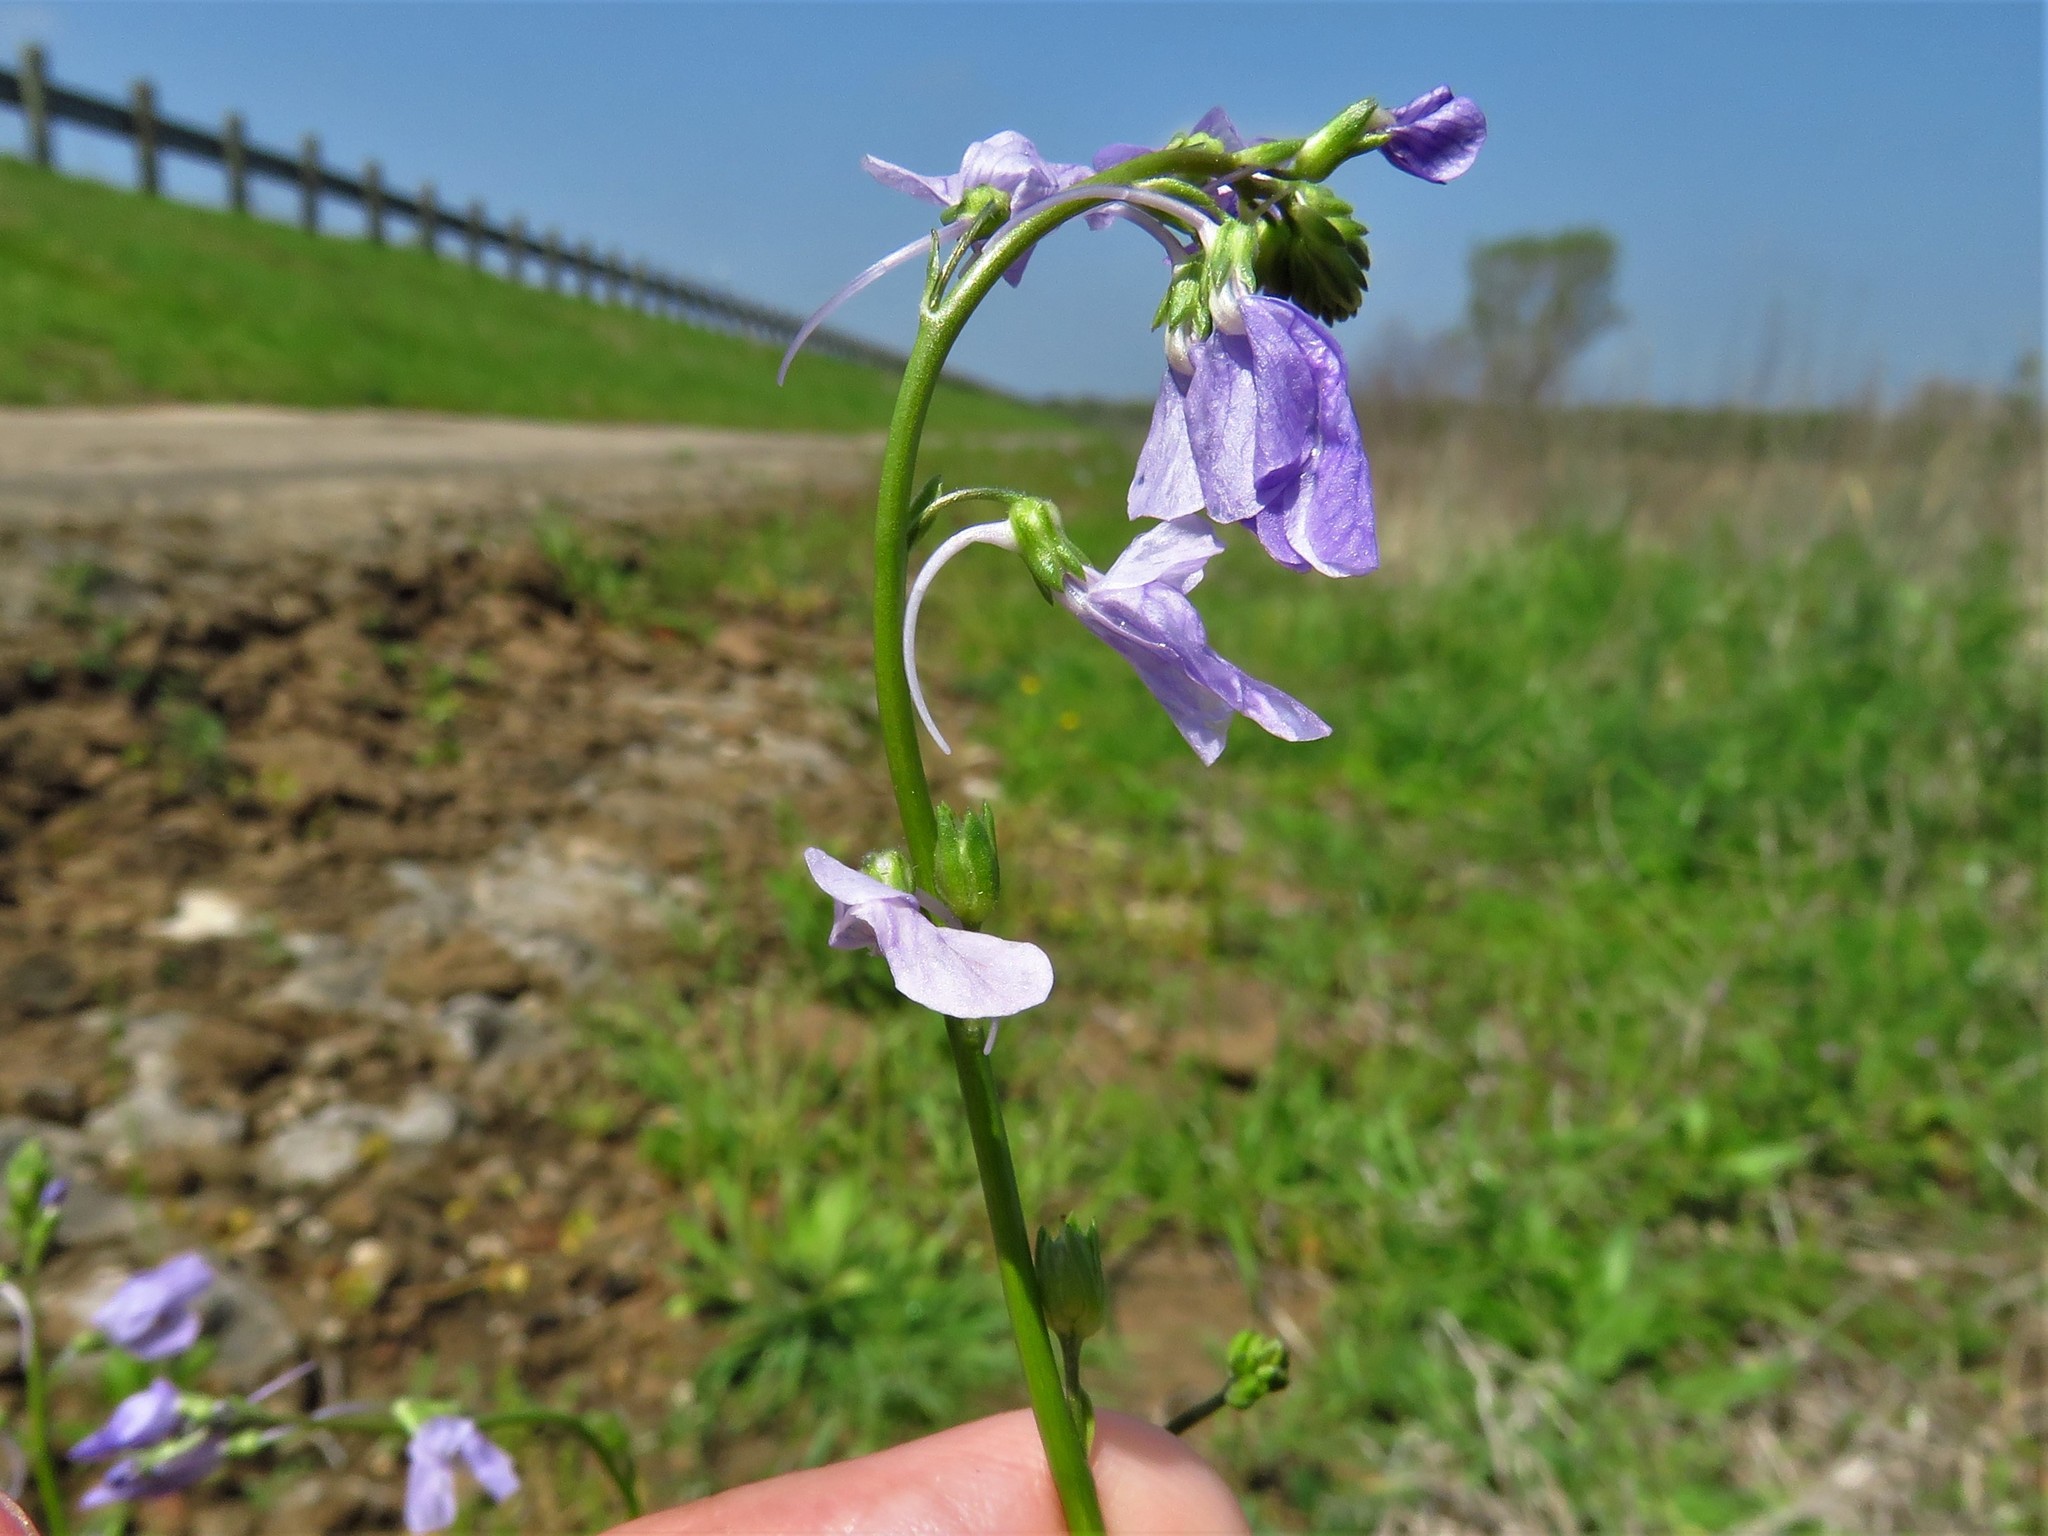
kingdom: Plantae
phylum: Tracheophyta
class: Magnoliopsida
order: Lamiales
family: Plantaginaceae
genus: Nuttallanthus
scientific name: Nuttallanthus texanus
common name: Texas toadflax
